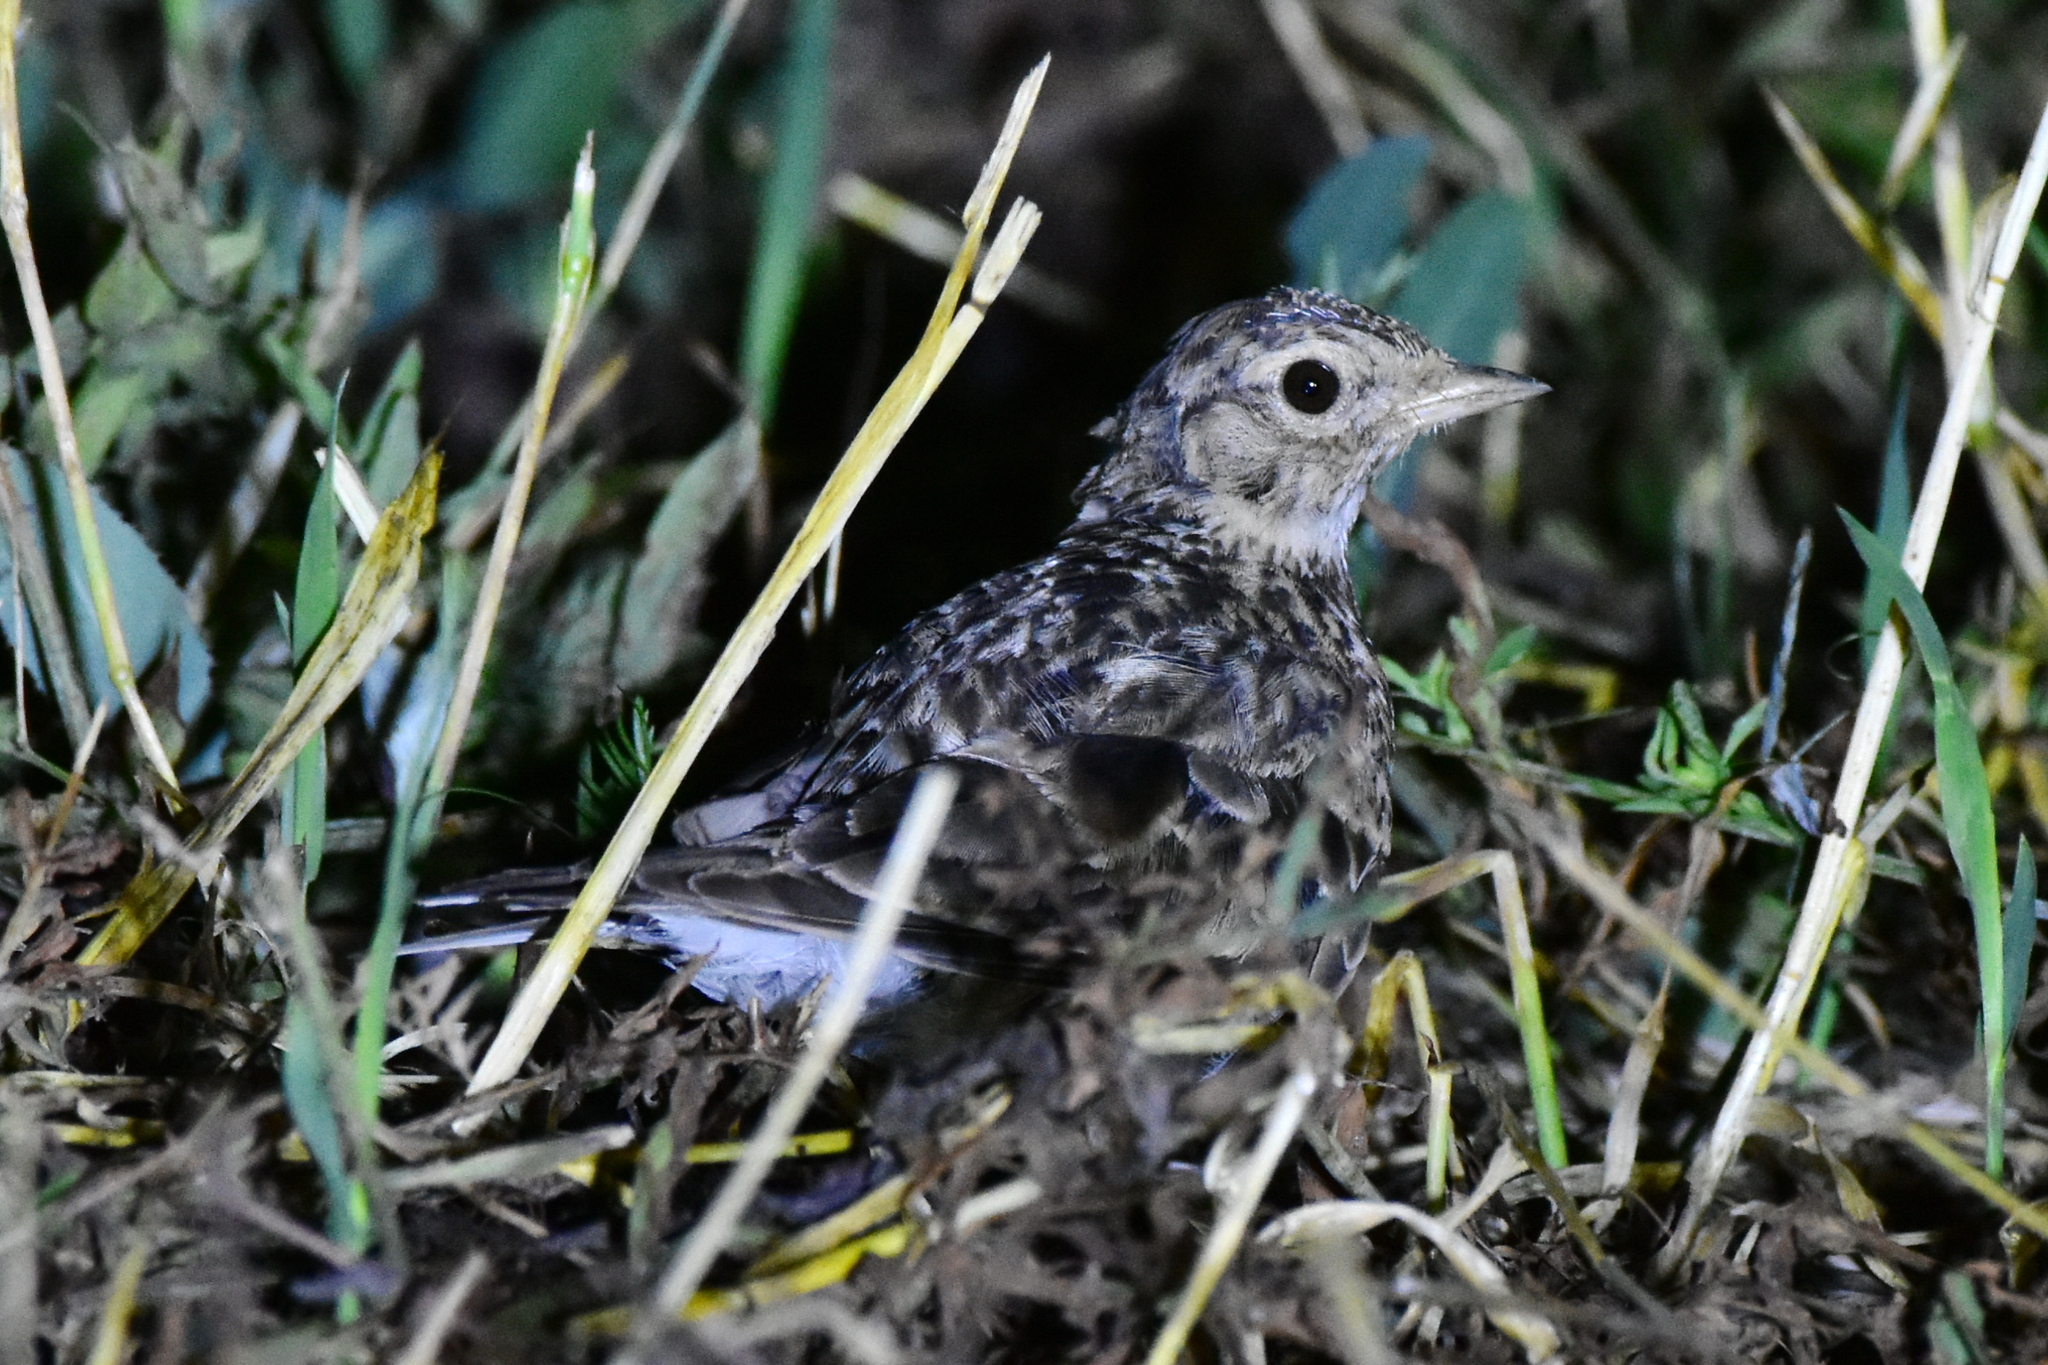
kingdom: Animalia
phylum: Chordata
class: Aves
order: Passeriformes
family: Alaudidae
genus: Alauda
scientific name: Alauda arvensis
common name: Eurasian skylark
